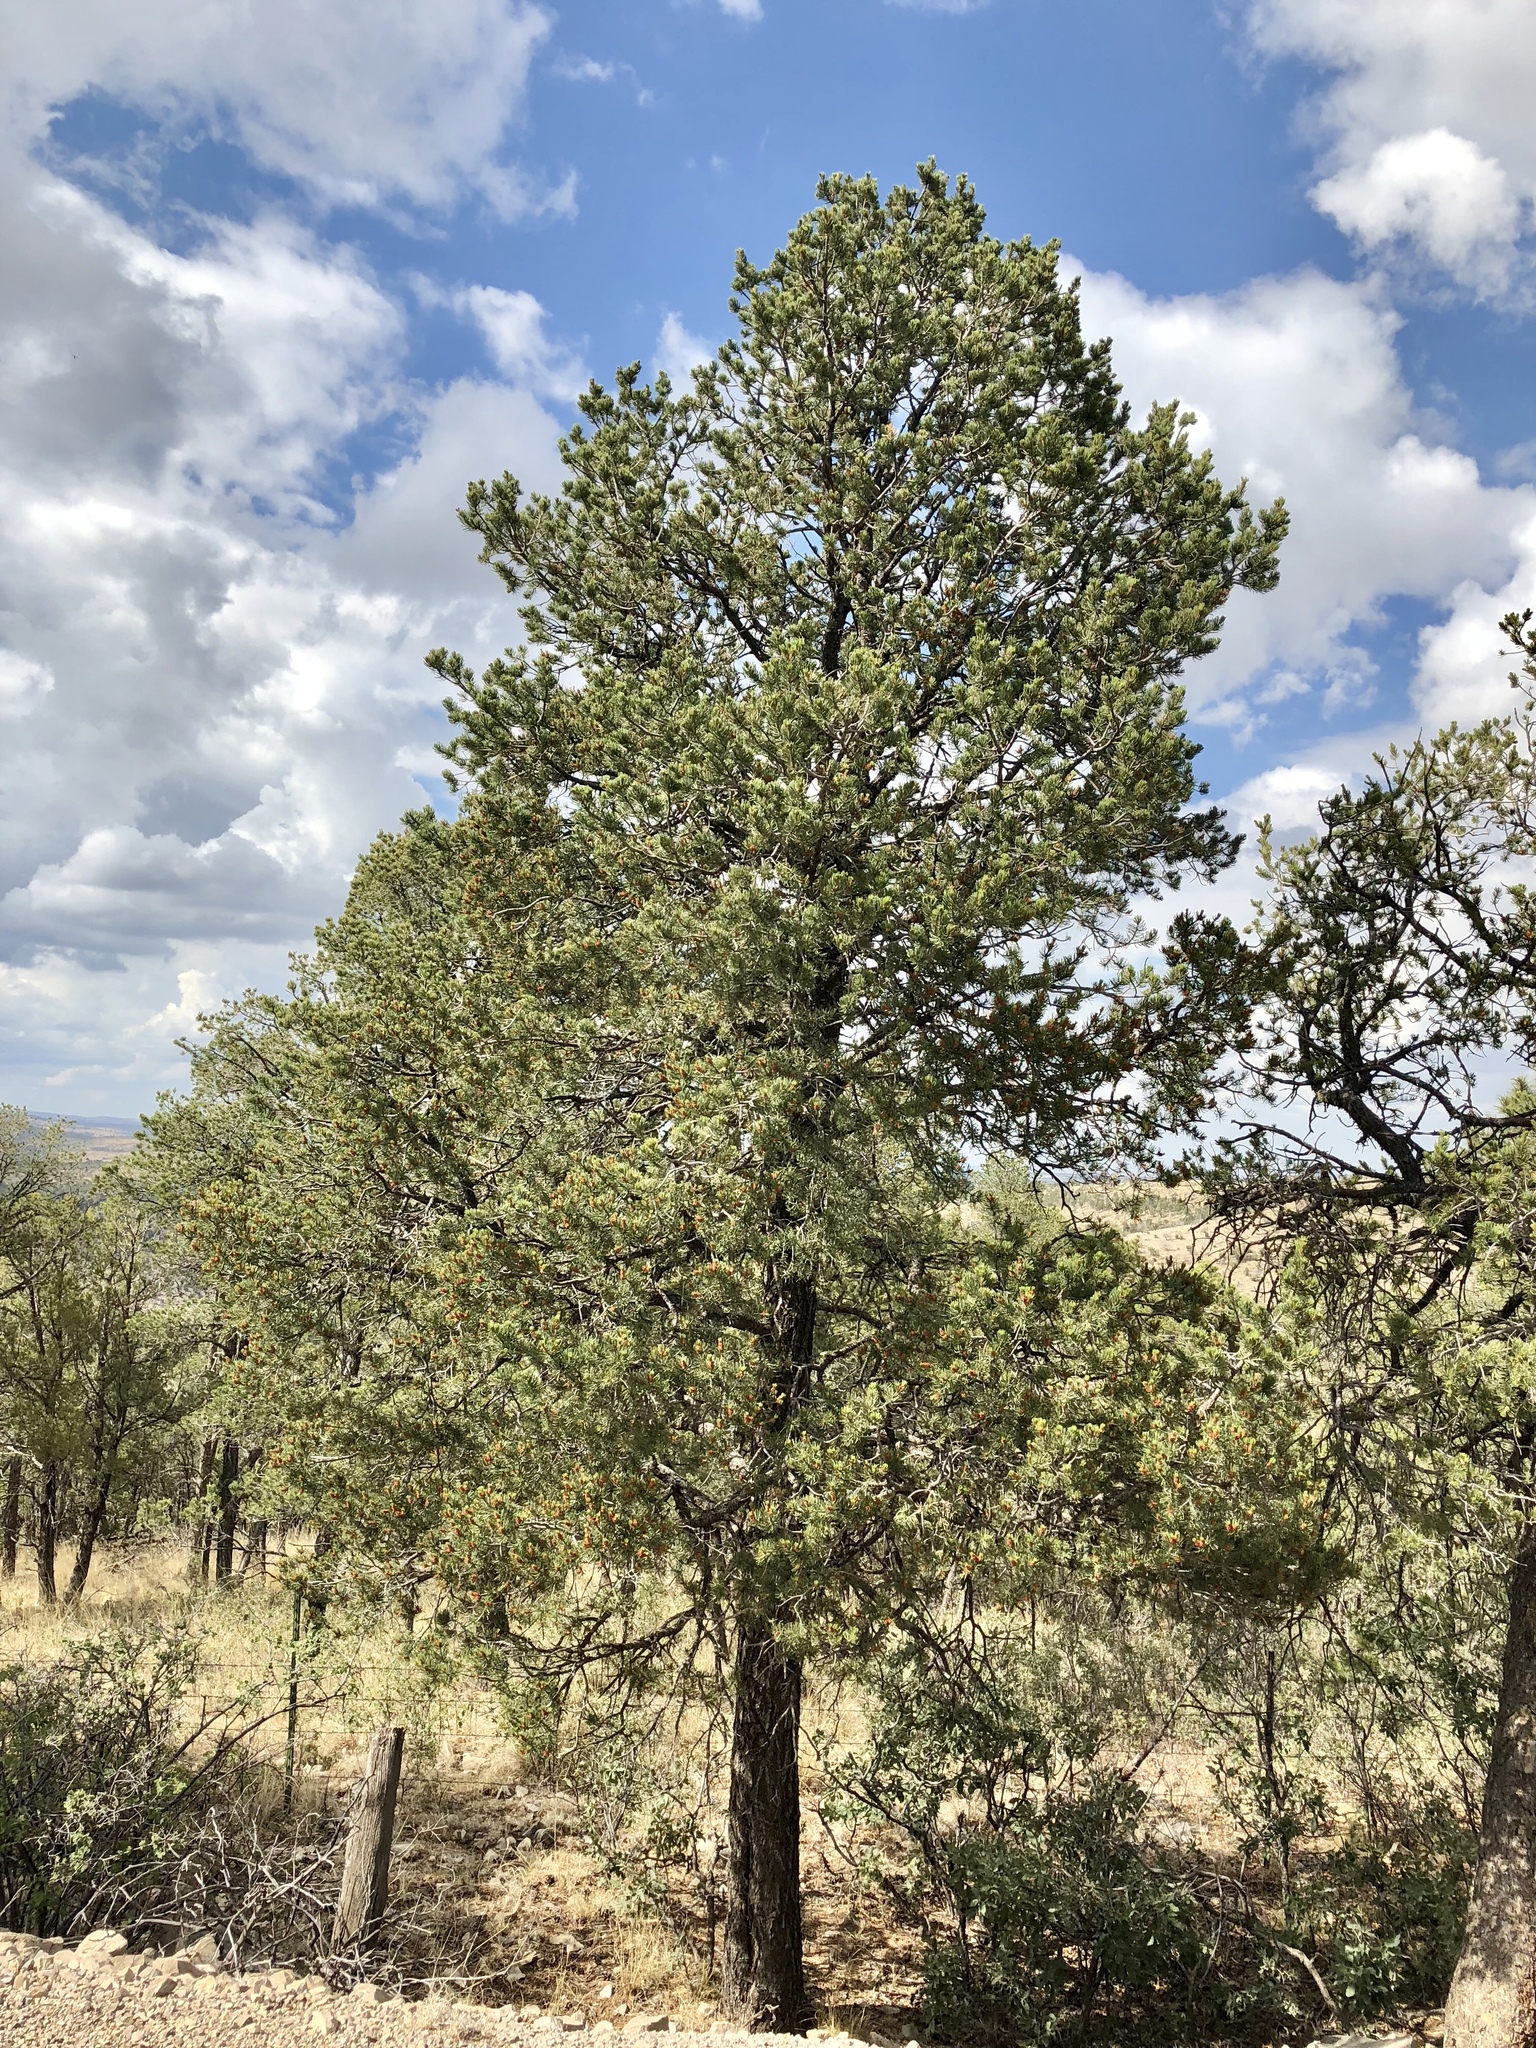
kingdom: Plantae
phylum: Tracheophyta
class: Pinopsida
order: Pinales
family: Pinaceae
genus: Pinus
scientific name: Pinus edulis
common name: Colorado pinyon
